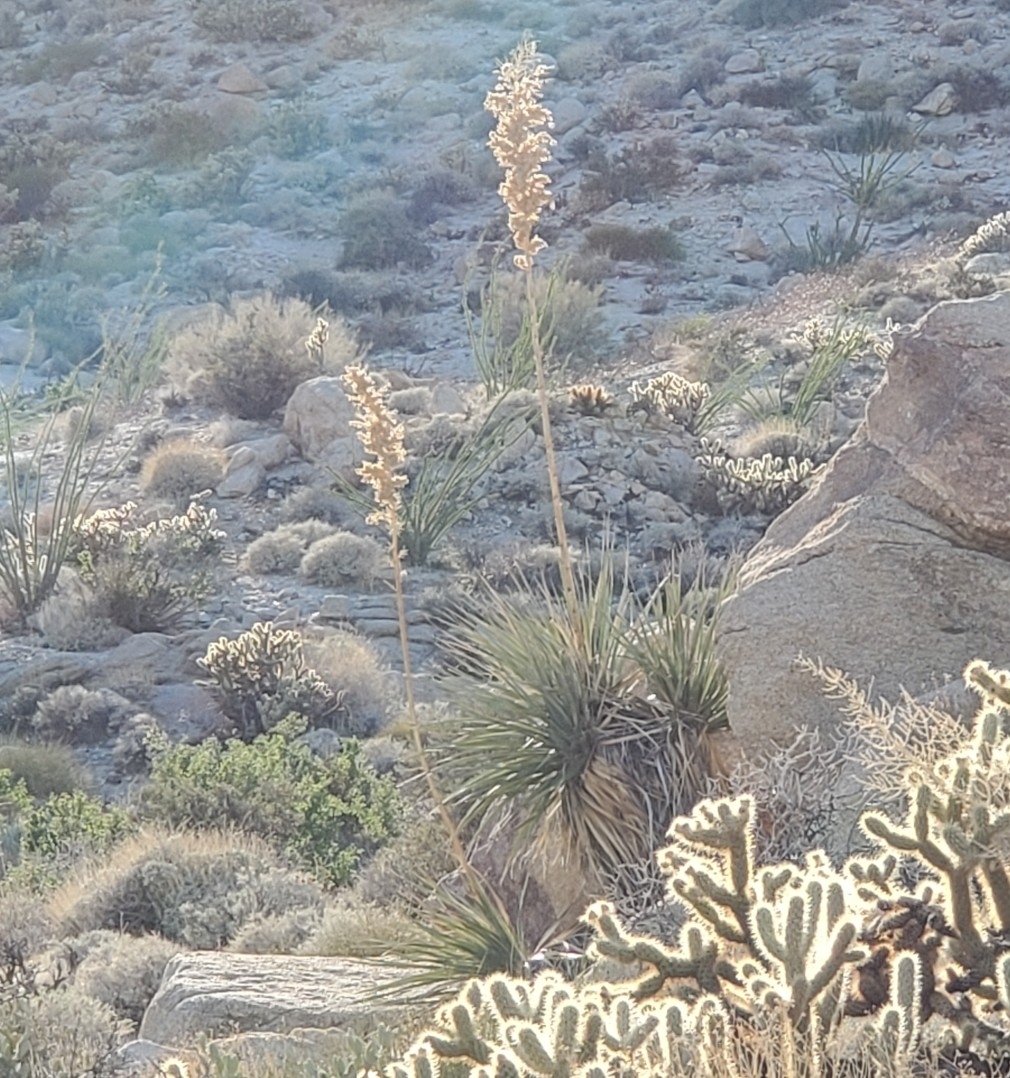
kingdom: Plantae
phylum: Tracheophyta
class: Liliopsida
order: Asparagales
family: Asparagaceae
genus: Nolina
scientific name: Nolina bigelovii
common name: Bigelow bear-grass
